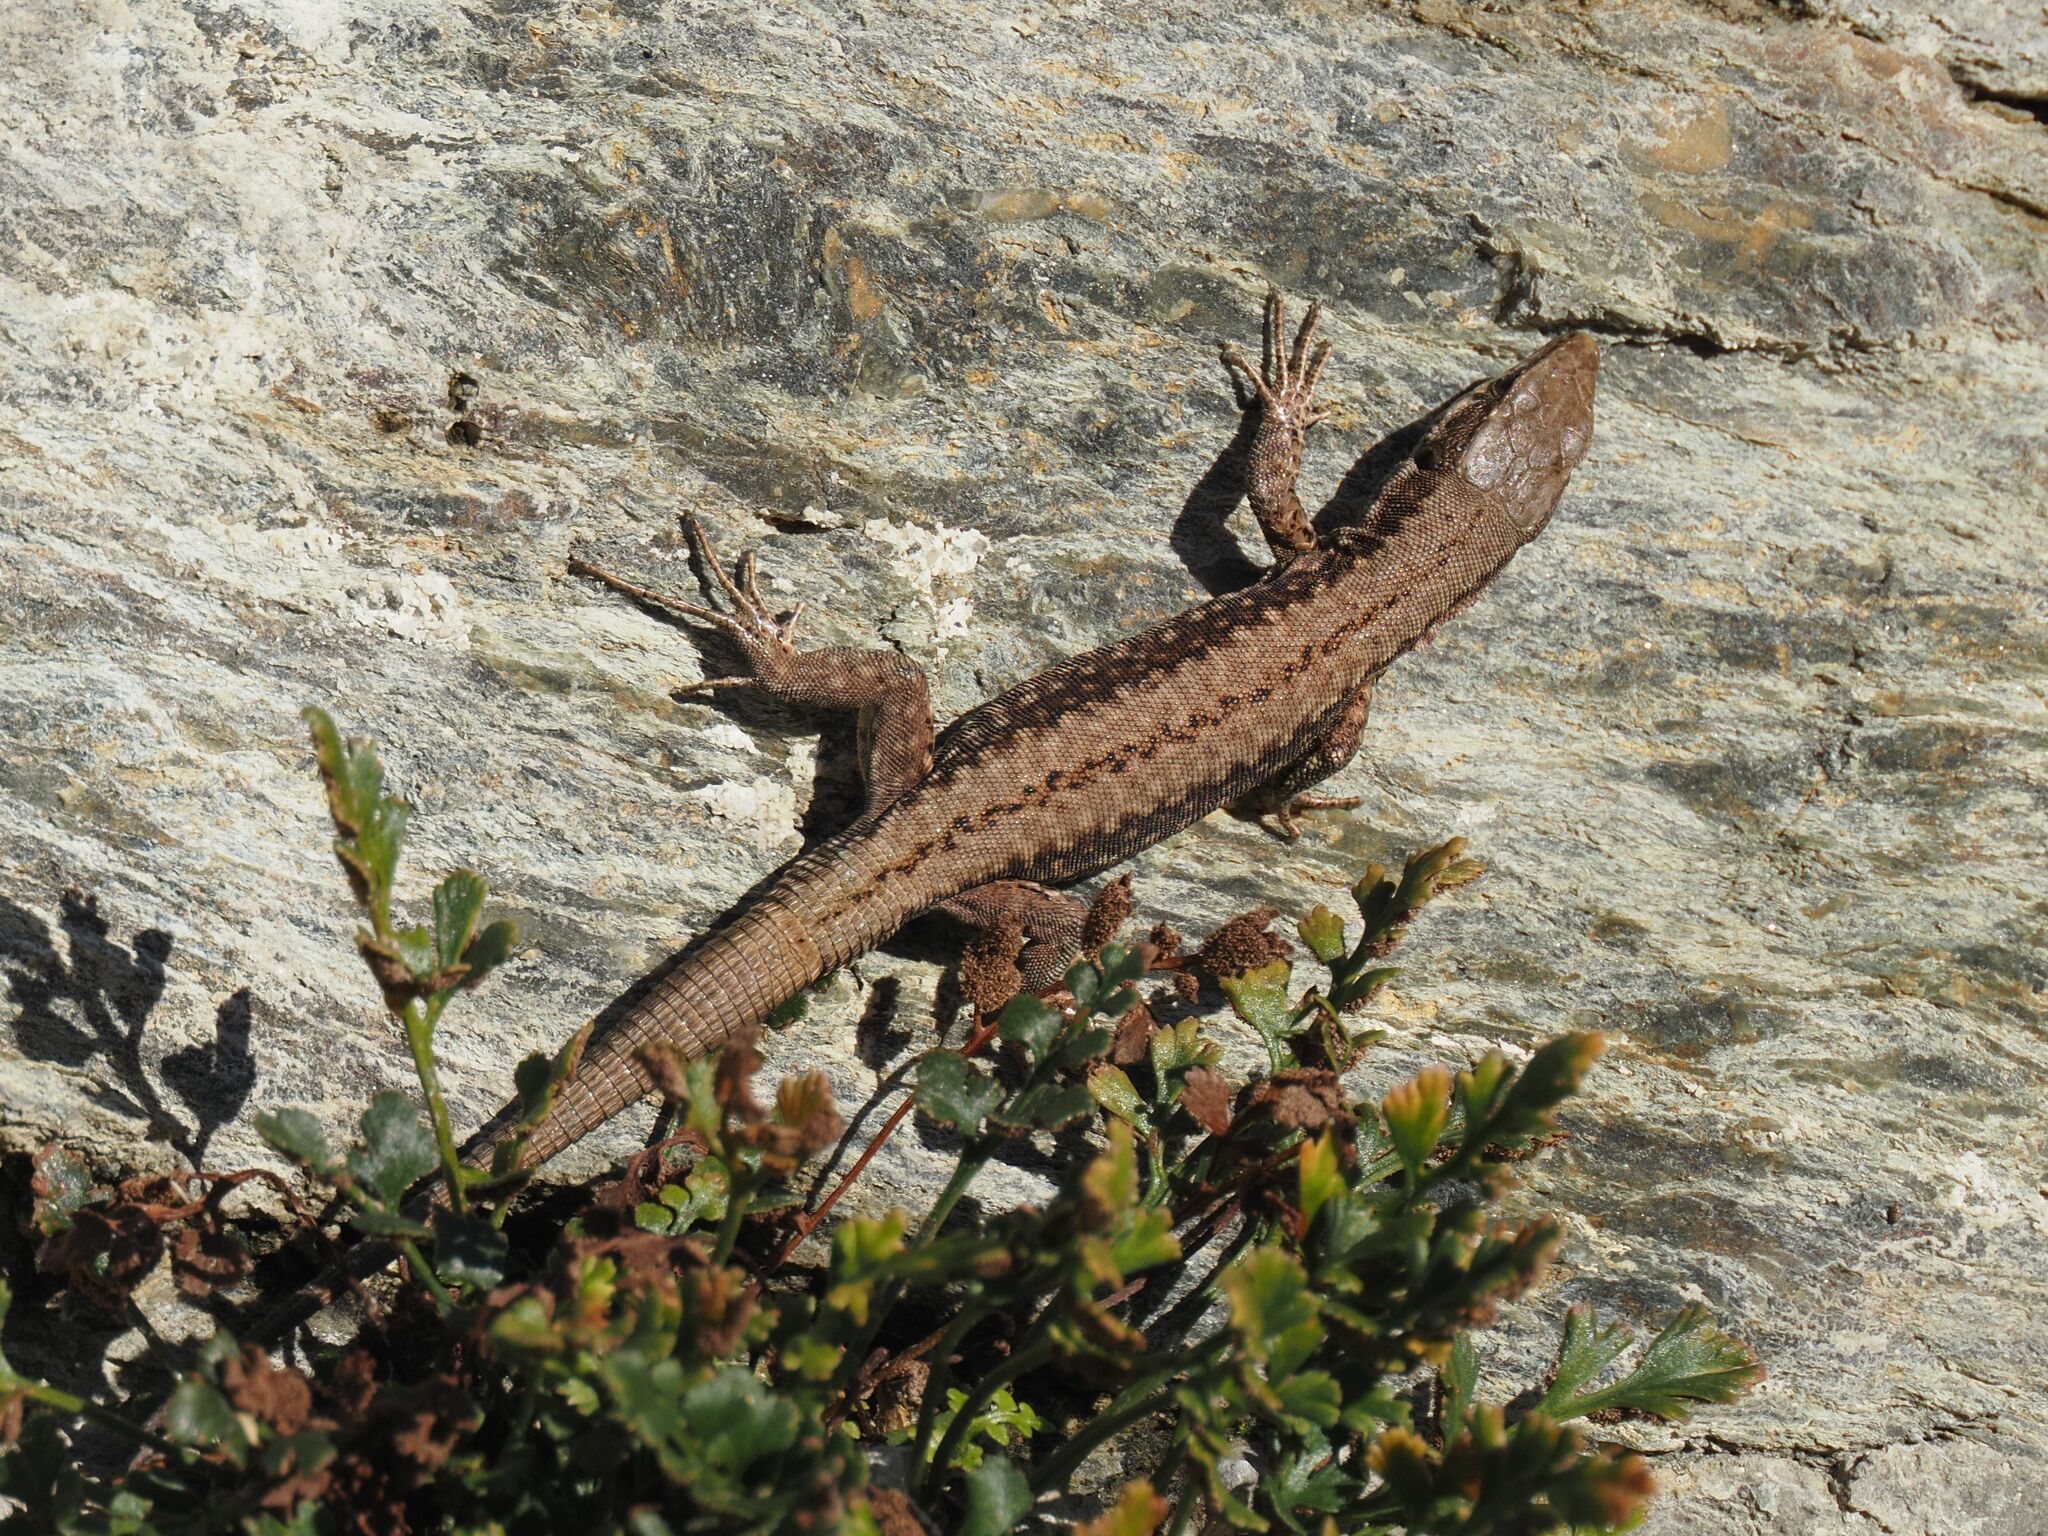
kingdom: Animalia
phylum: Chordata
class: Squamata
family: Lacertidae
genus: Podarcis
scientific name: Podarcis muralis
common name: Common wall lizard
